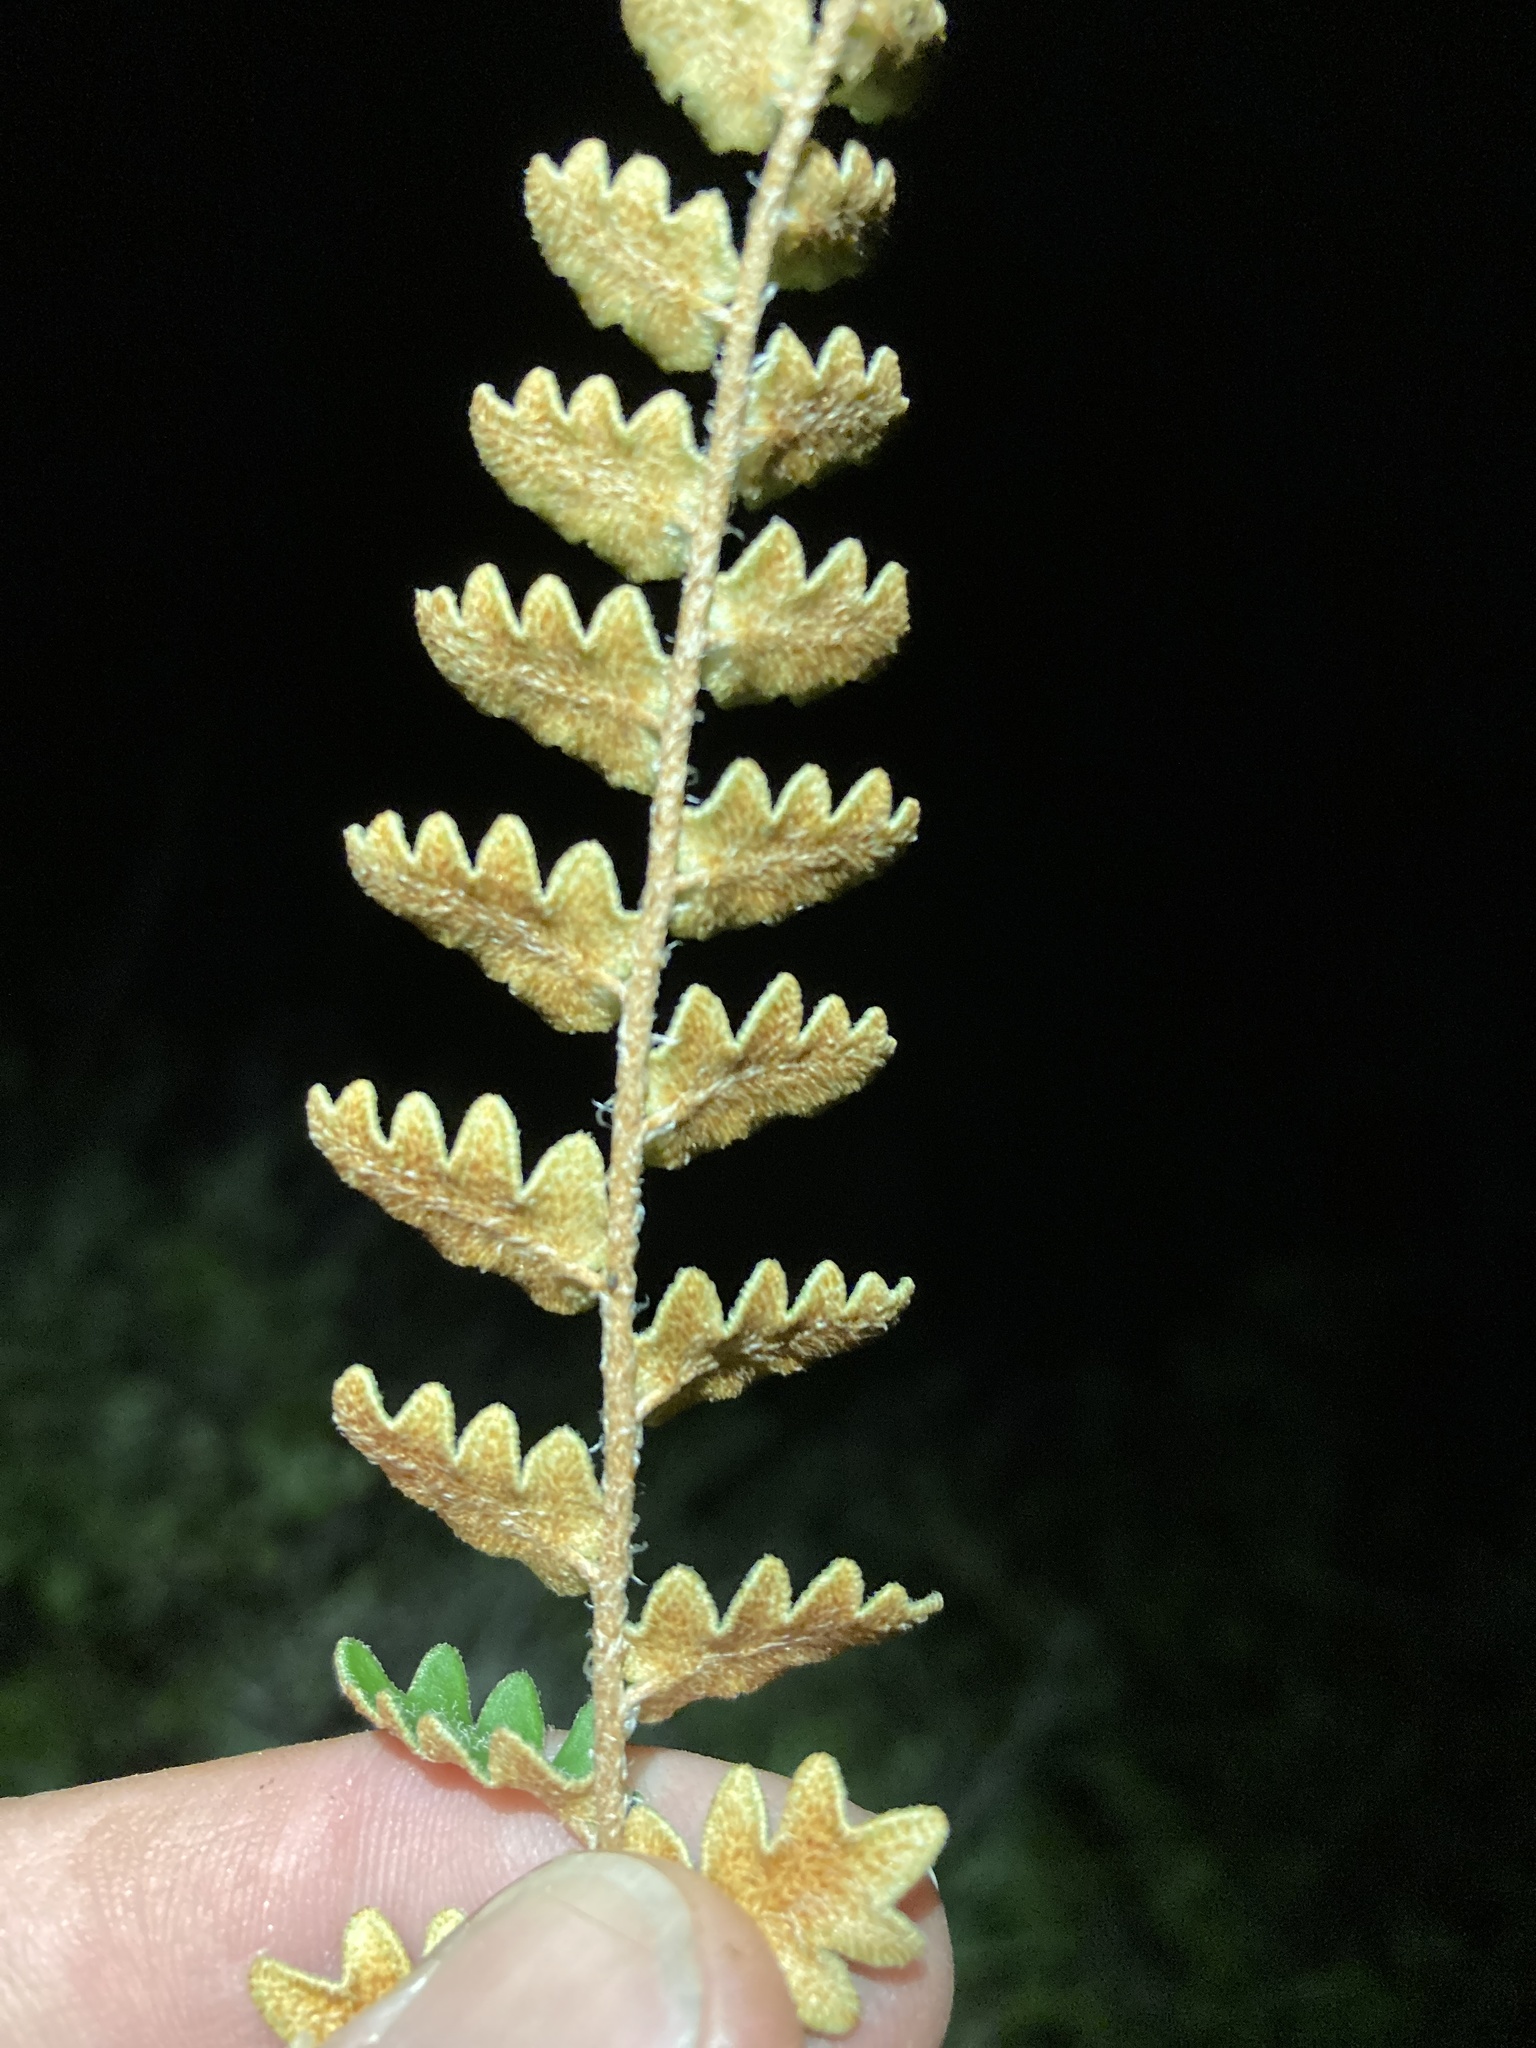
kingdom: Plantae
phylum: Tracheophyta
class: Polypodiopsida
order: Polypodiales
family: Pteridaceae
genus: Astrolepis
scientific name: Astrolepis sinuata
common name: Wavy scaly cloakfern
